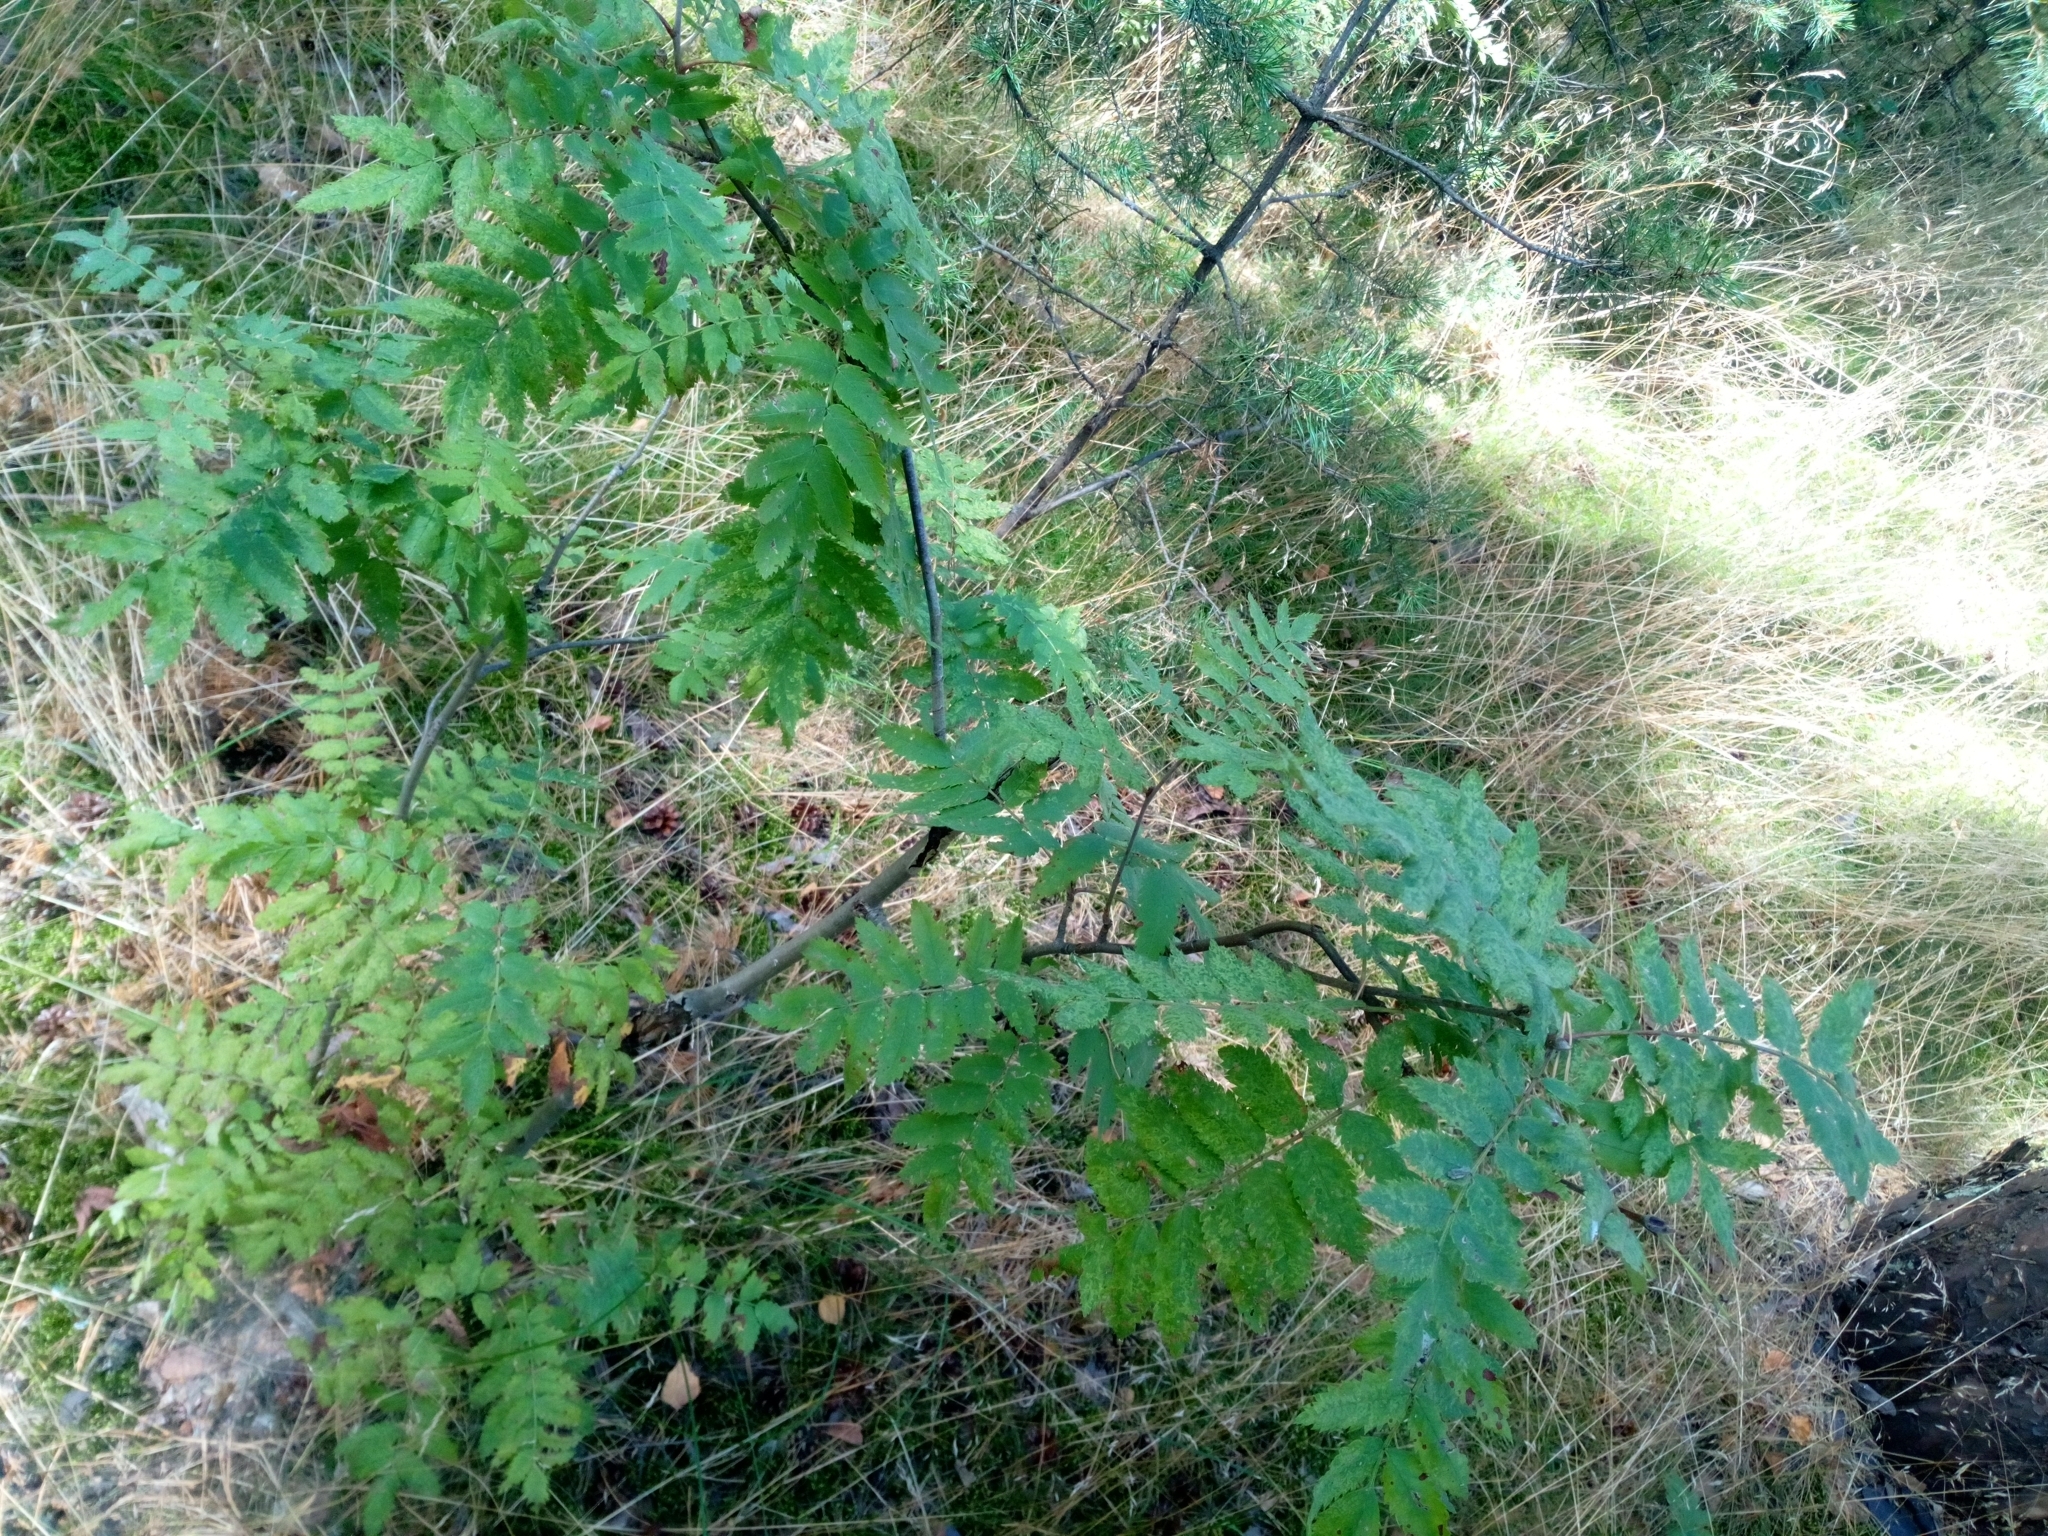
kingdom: Viruses
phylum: Negarnaviricota
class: Ellioviricetes
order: Bunyavirales
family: Fimoviridae
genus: Emaravirus
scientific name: Emaravirus sorbi
